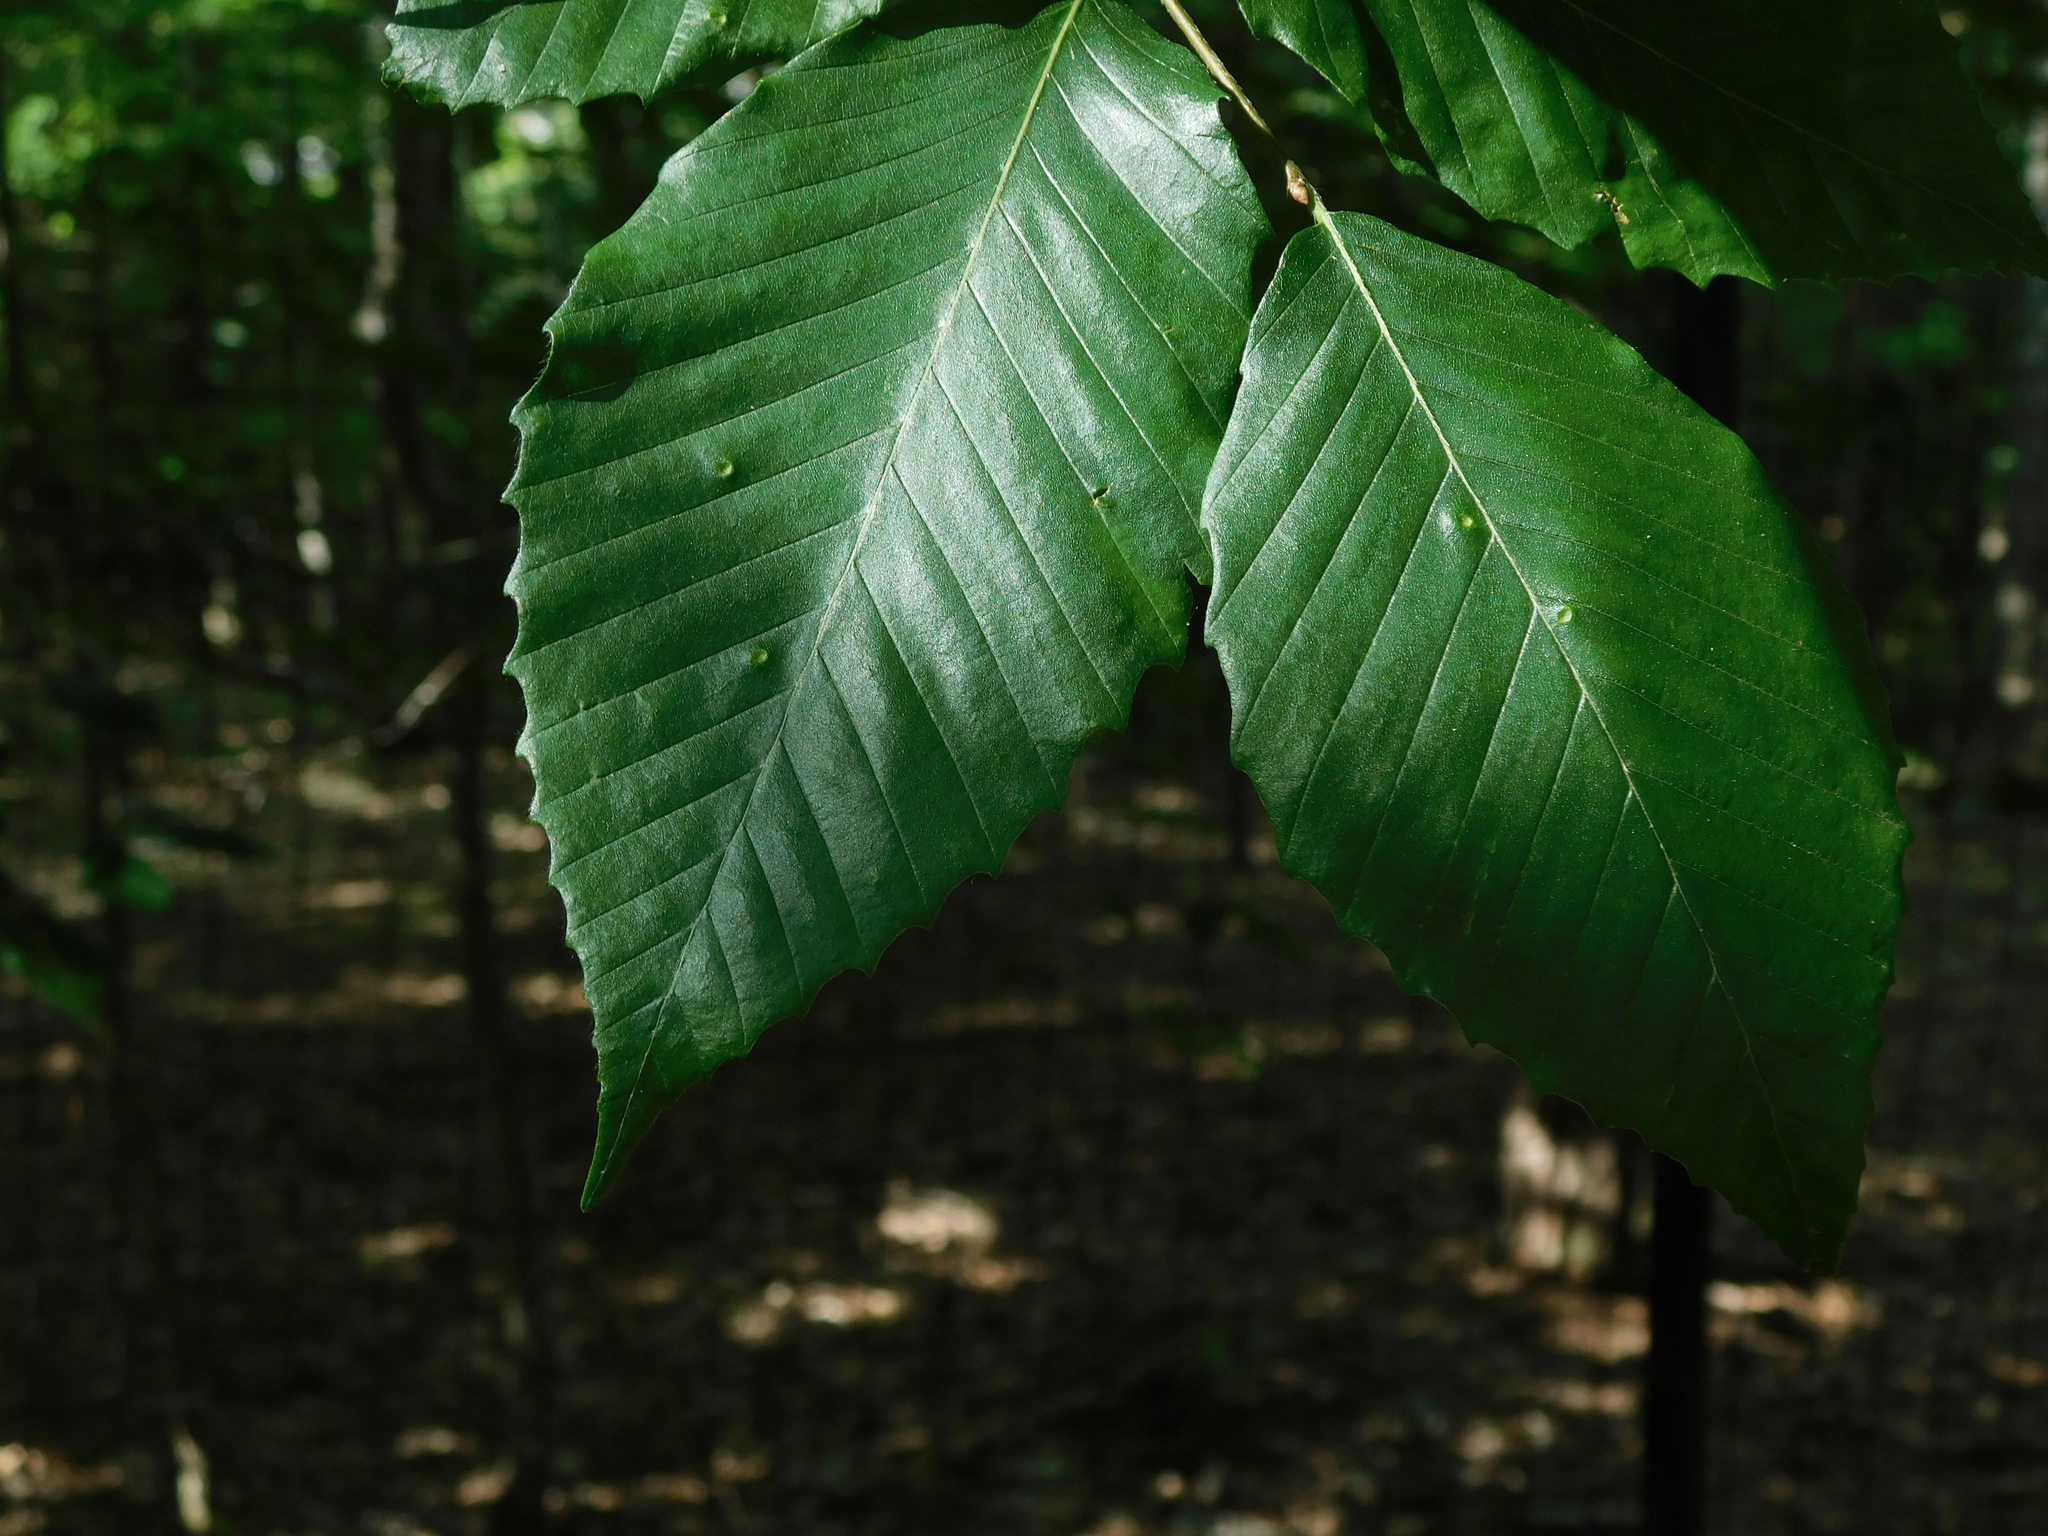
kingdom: Plantae
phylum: Tracheophyta
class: Magnoliopsida
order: Fagales
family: Fagaceae
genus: Fagus
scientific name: Fagus grandifolia
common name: American beech
